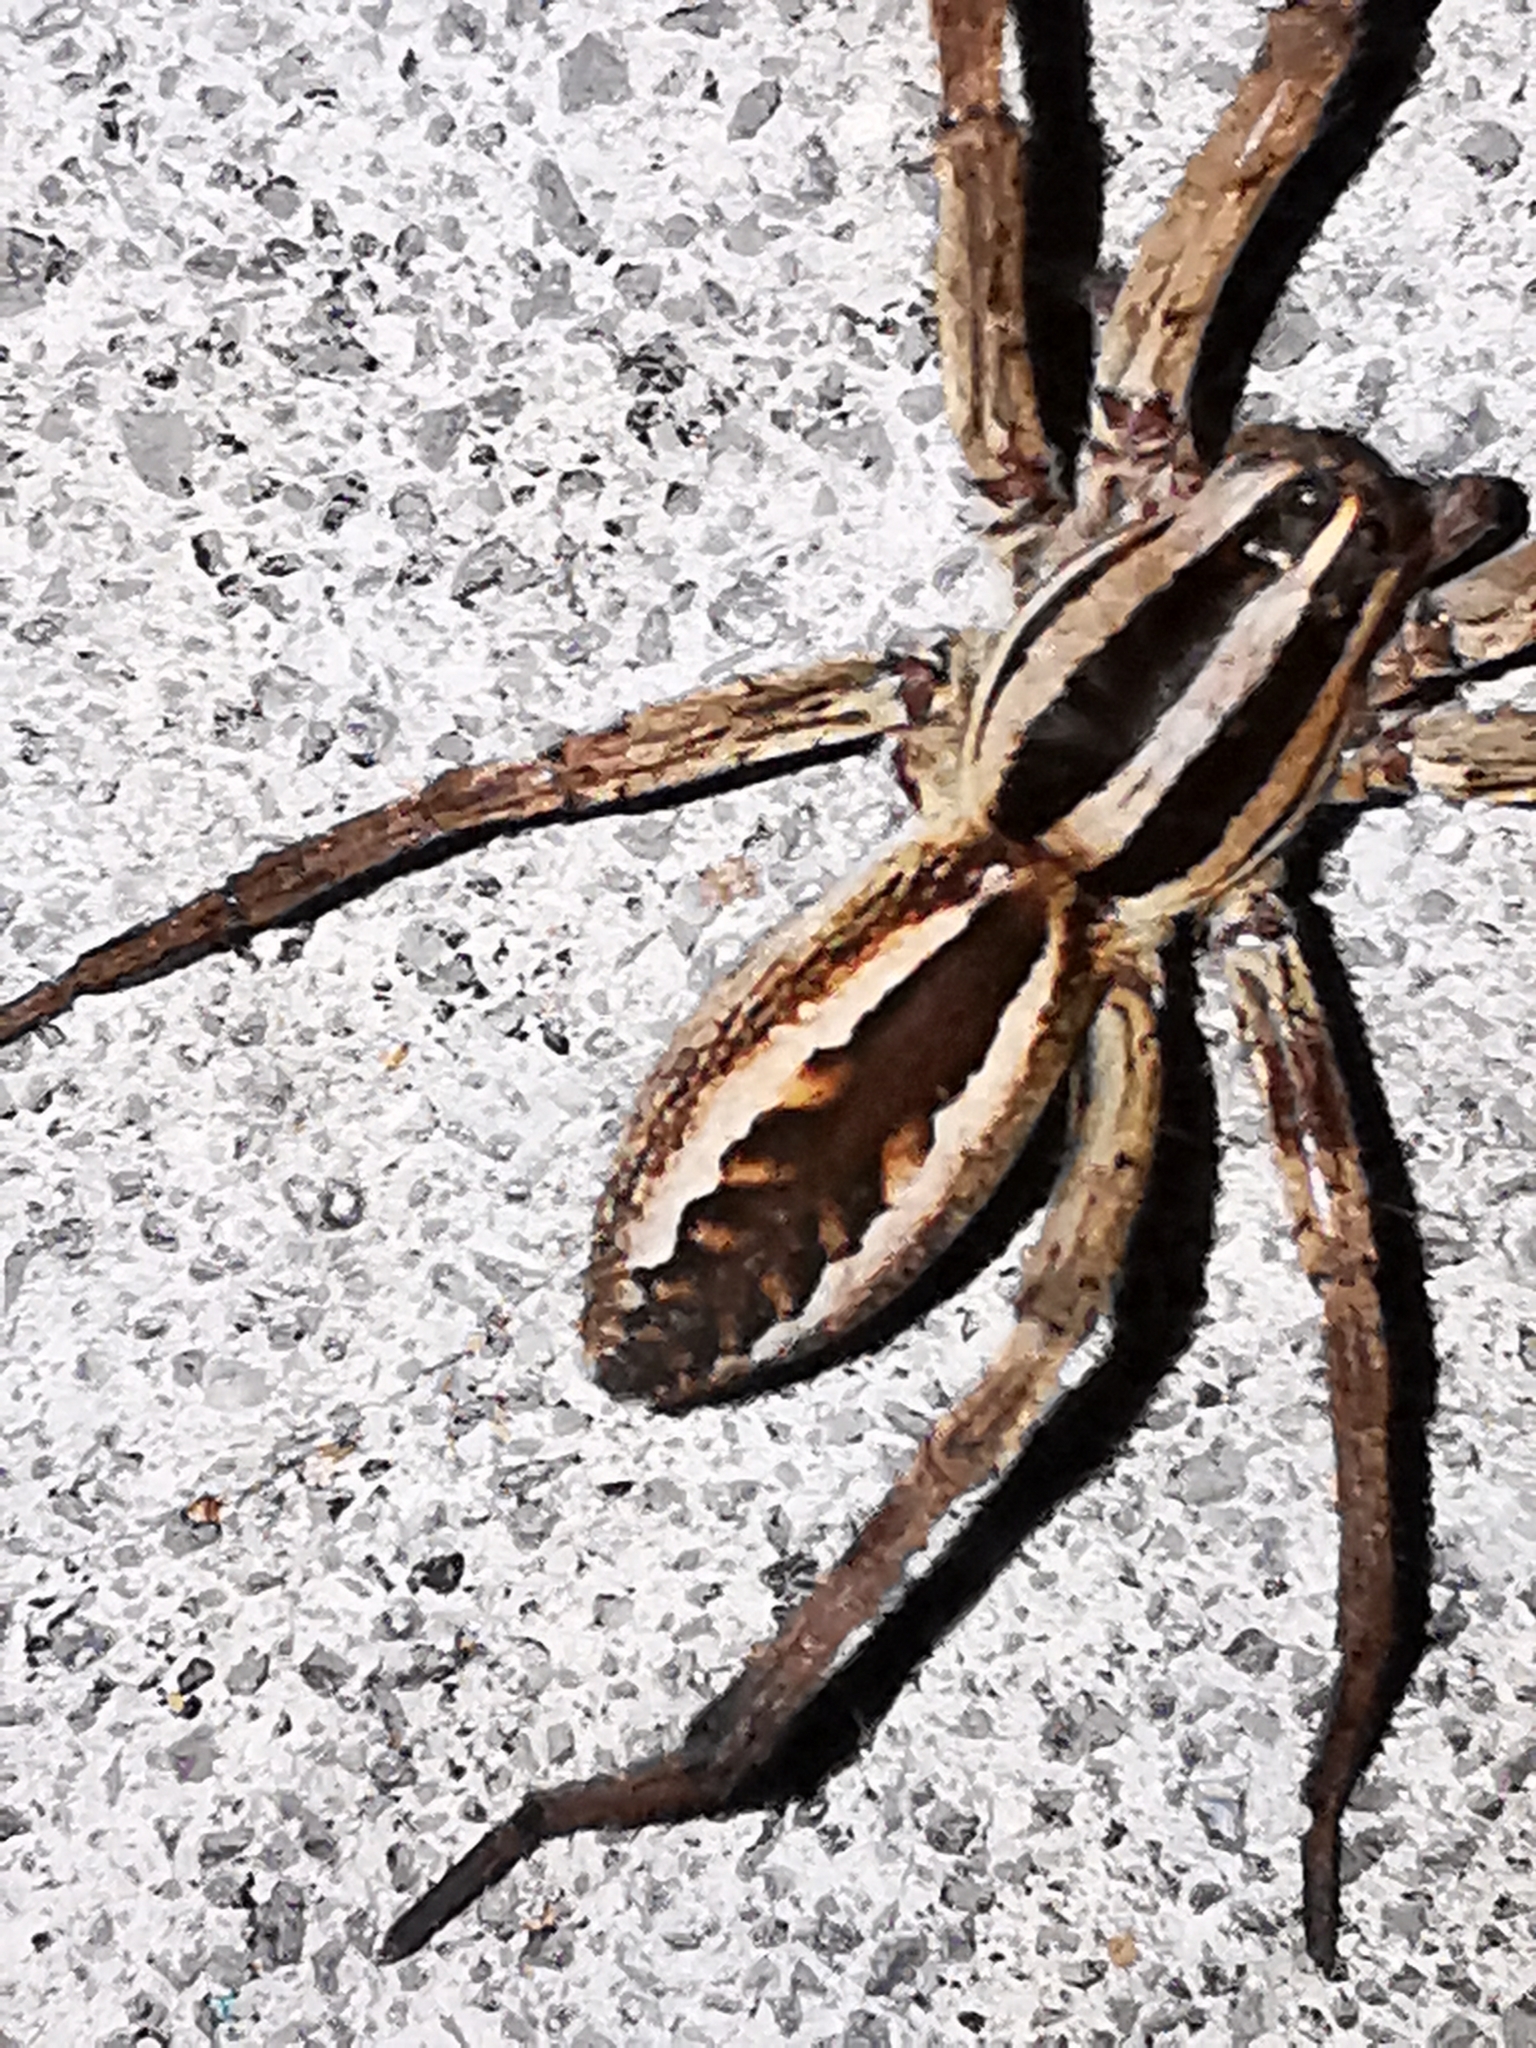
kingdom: Animalia
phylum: Arthropoda
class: Arachnida
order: Araneae
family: Lycosidae
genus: Rabidosa
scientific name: Rabidosa rabida
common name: Rabid wolf spider
